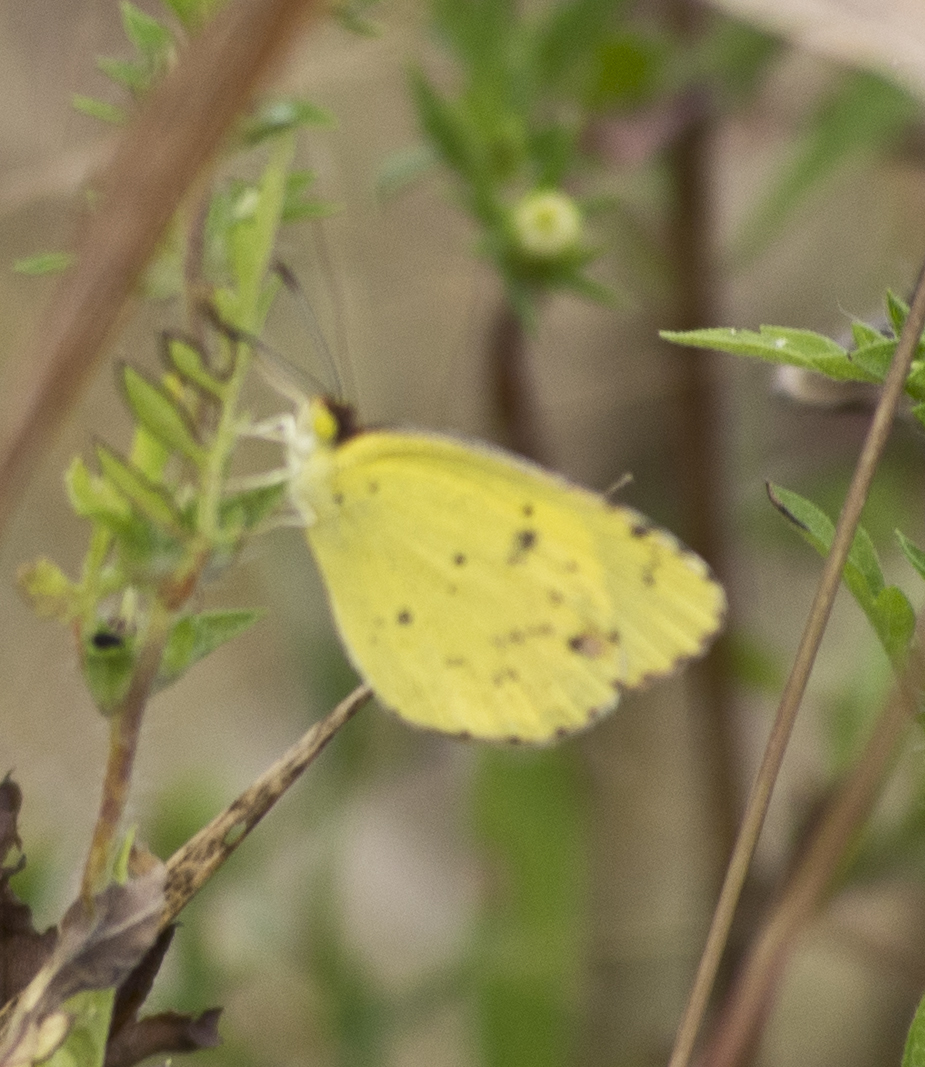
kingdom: Animalia
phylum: Arthropoda
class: Insecta
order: Lepidoptera
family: Pieridae
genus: Pyrisitia
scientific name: Pyrisitia lisa
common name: Little yellow
